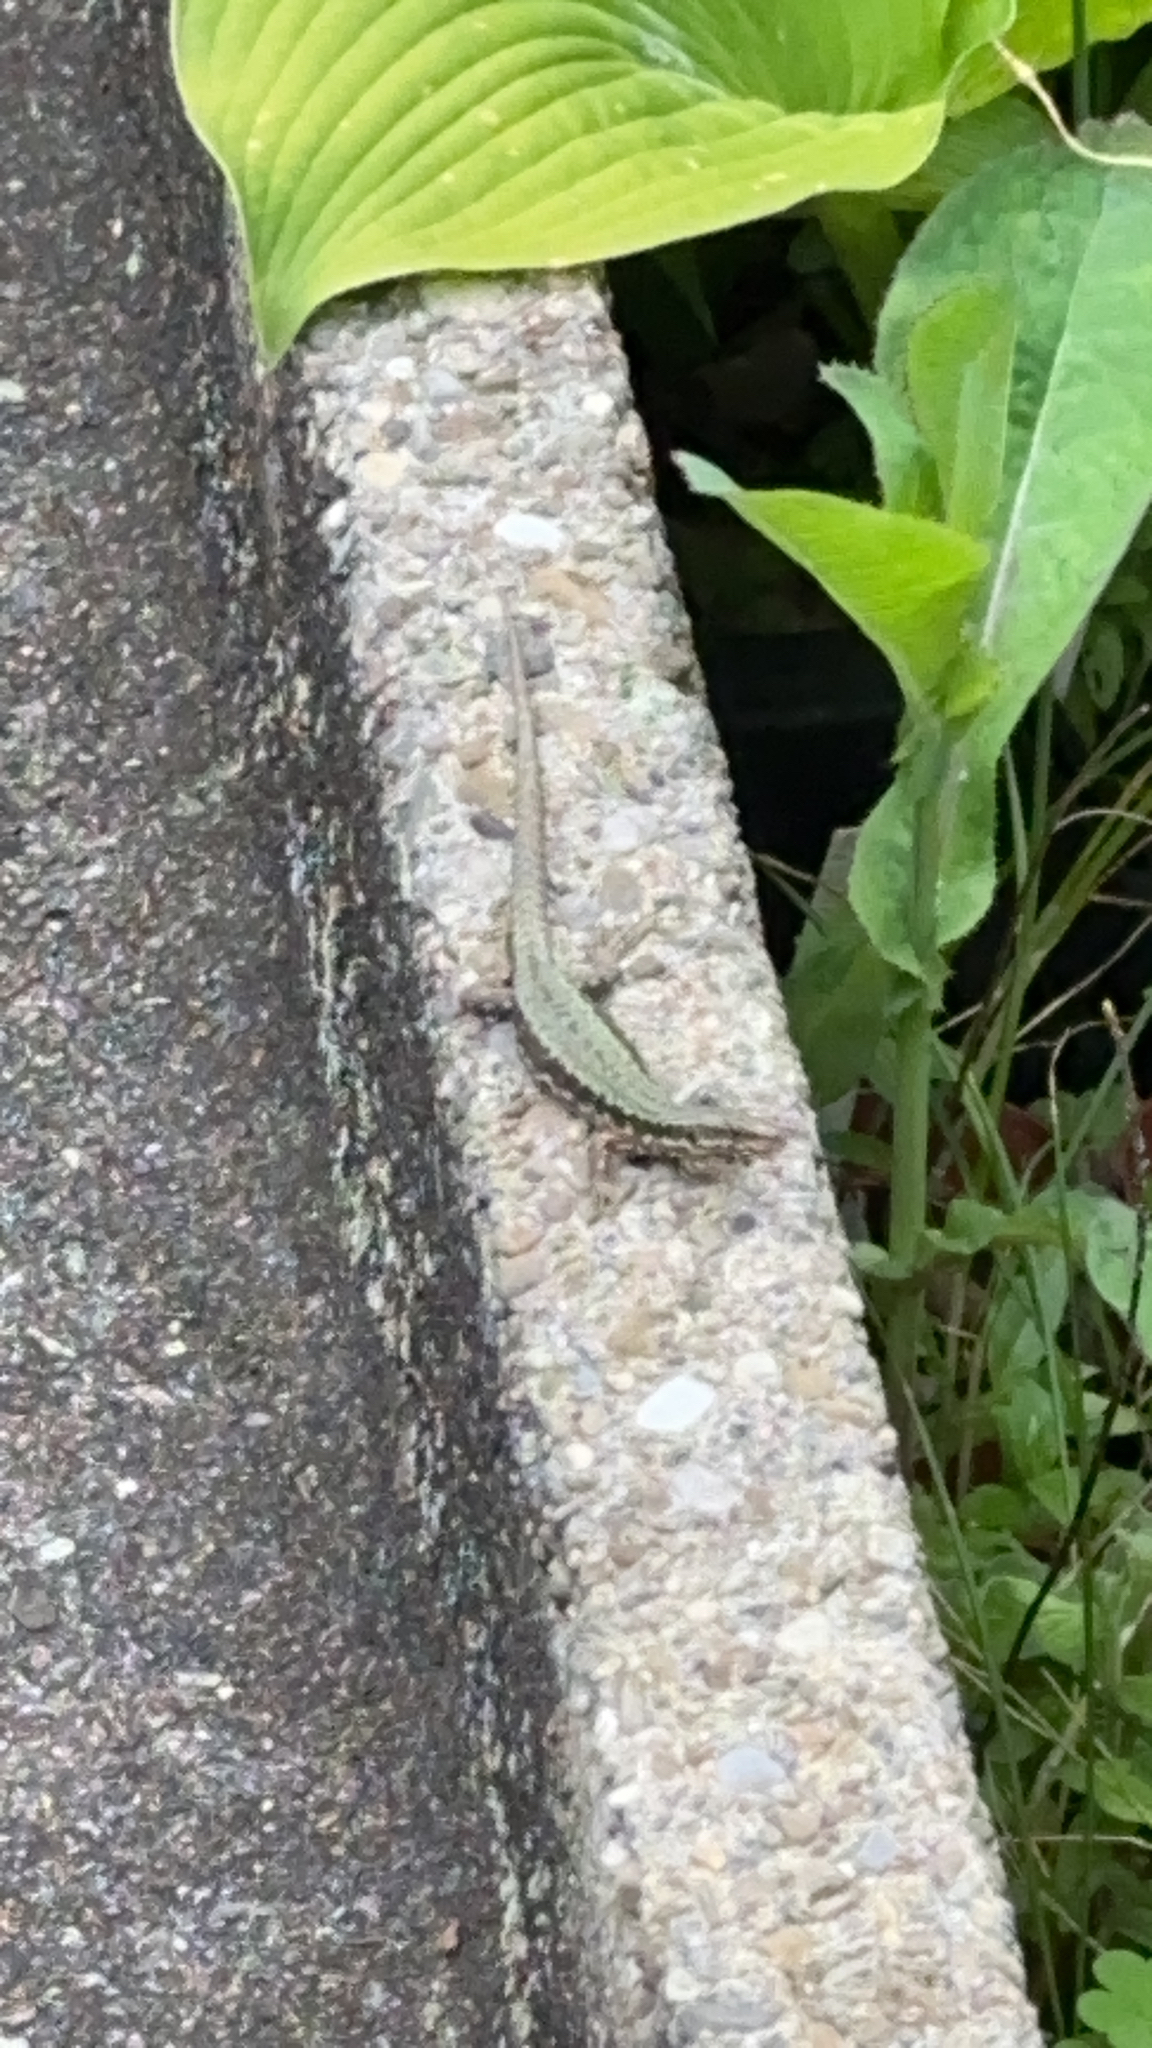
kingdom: Animalia
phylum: Chordata
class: Squamata
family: Lacertidae
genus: Podarcis
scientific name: Podarcis muralis
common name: Common wall lizard
